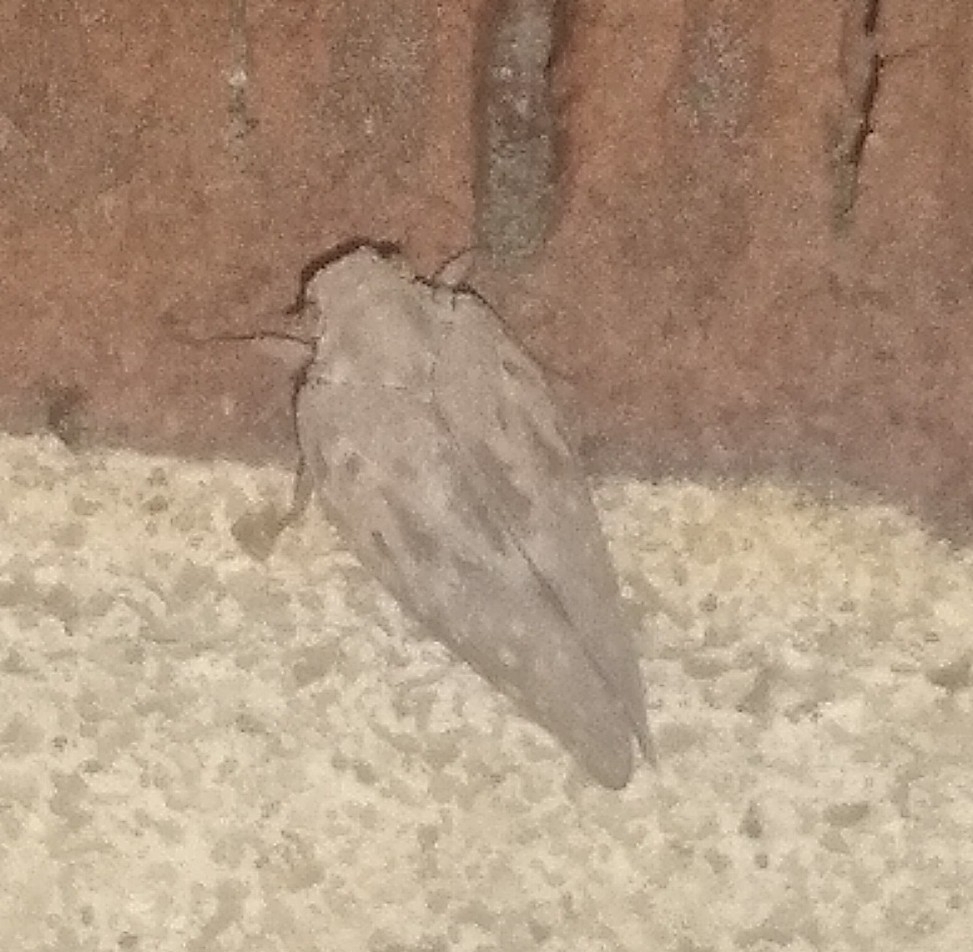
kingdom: Animalia
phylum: Arthropoda
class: Insecta
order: Hemiptera
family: Flatidae
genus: Metcalfa
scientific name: Metcalfa pruinosa
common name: Citrus flatid planthopper
